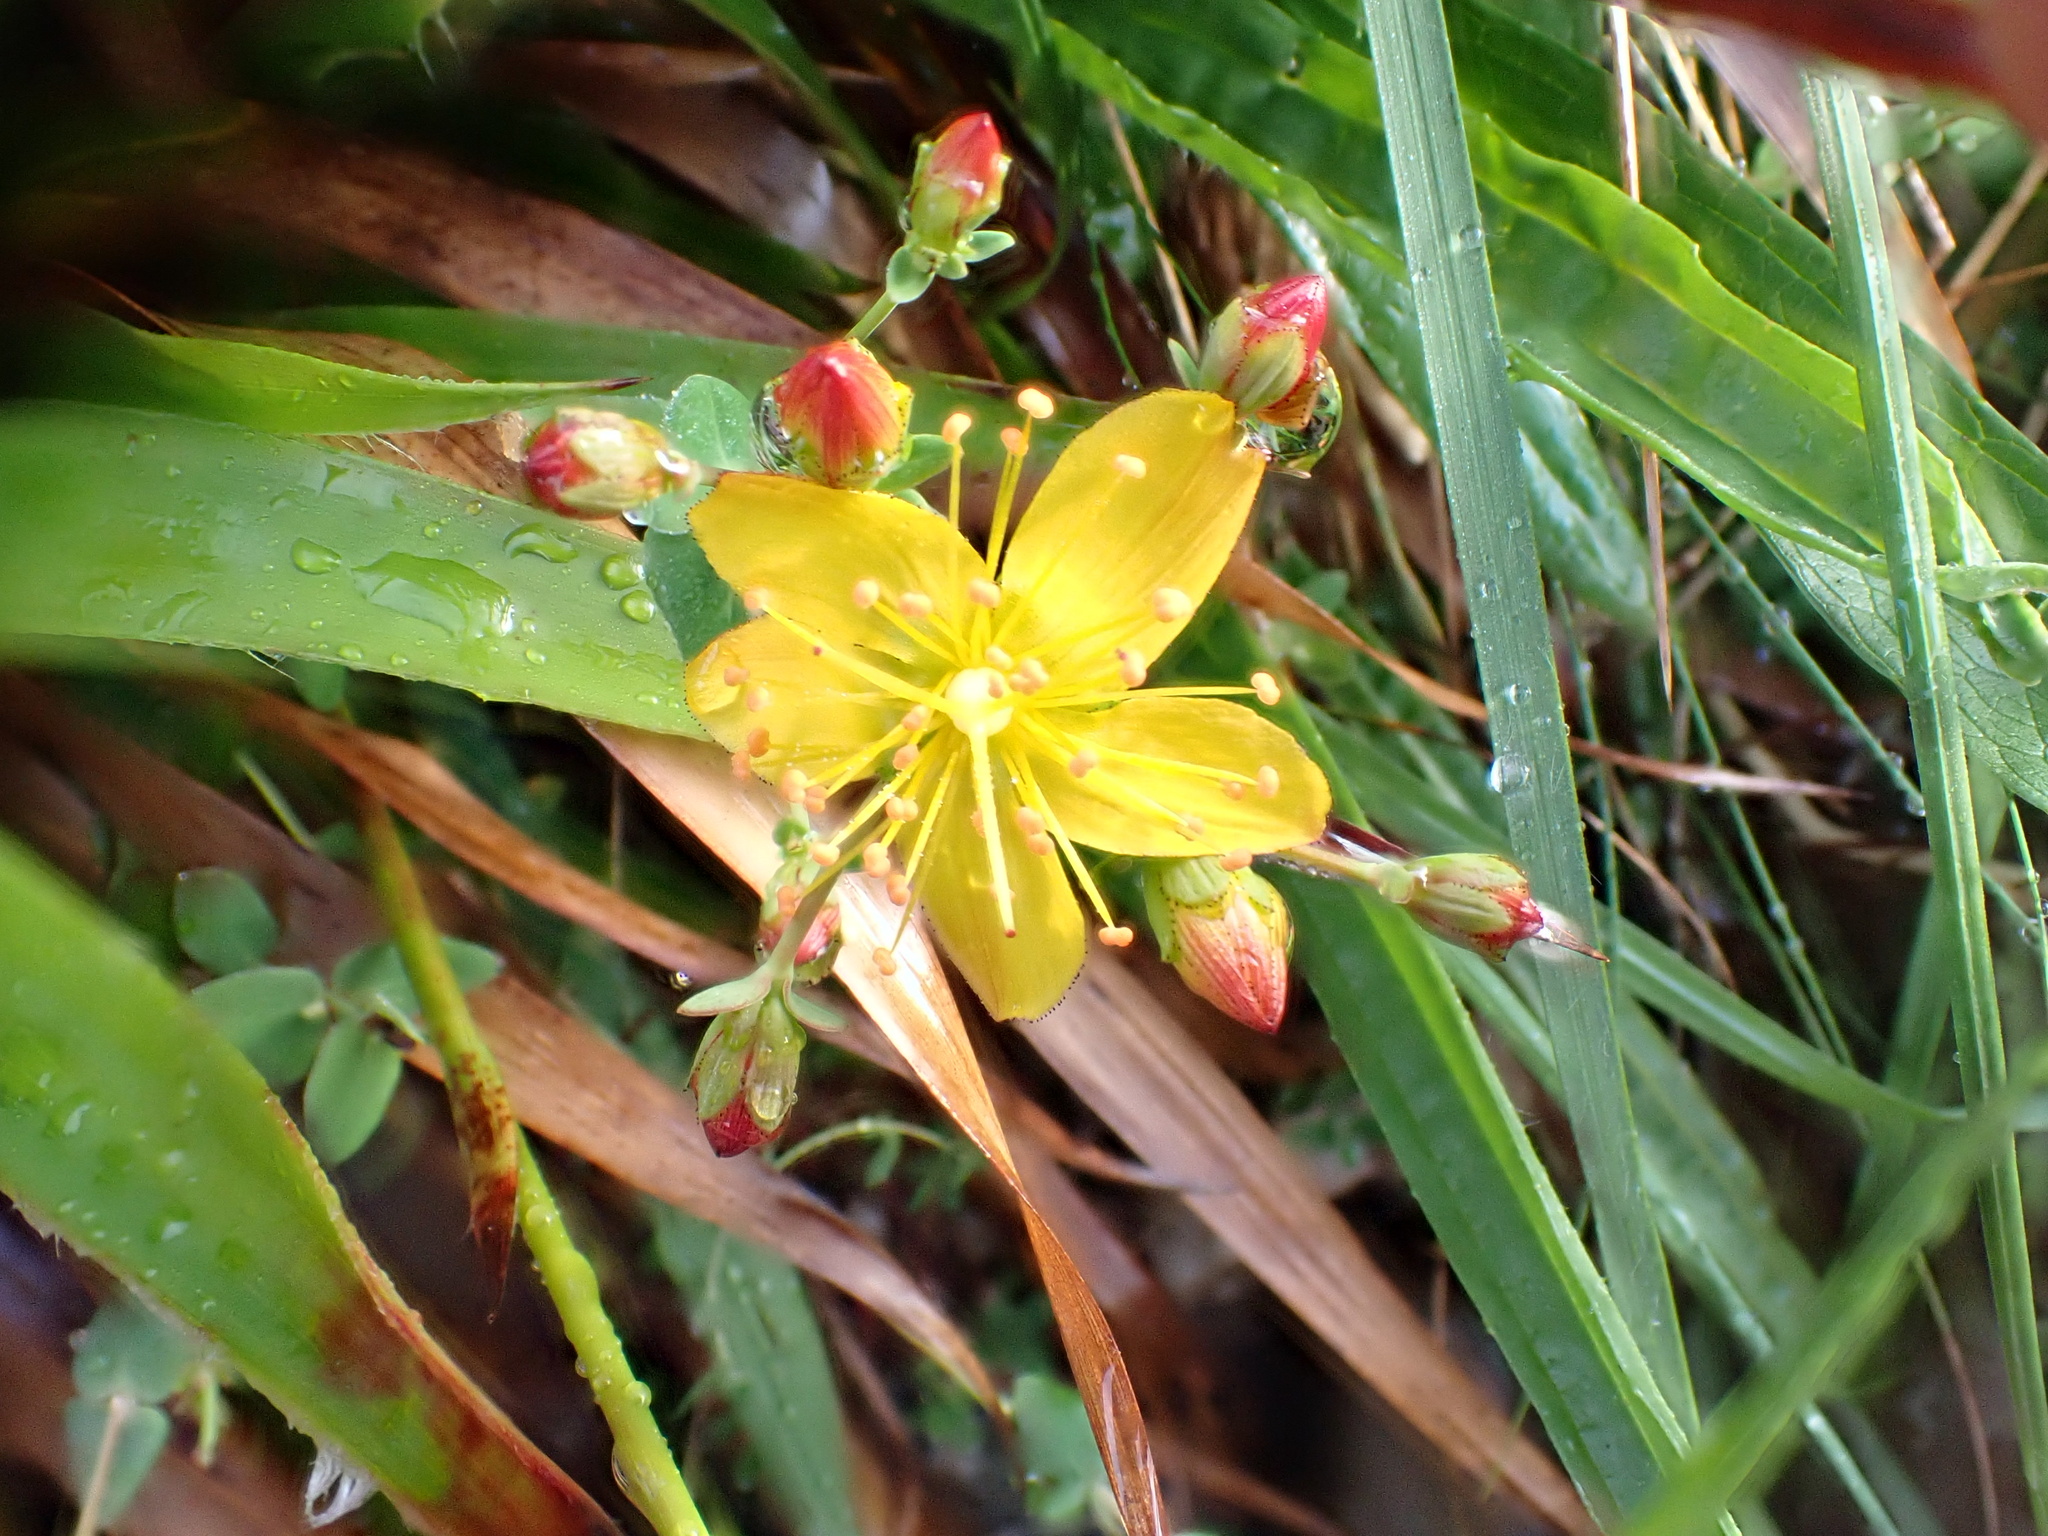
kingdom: Plantae
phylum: Tracheophyta
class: Magnoliopsida
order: Malpighiales
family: Hypericaceae
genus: Hypericum
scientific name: Hypericum pulchrum
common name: Slender st. john's-wort
